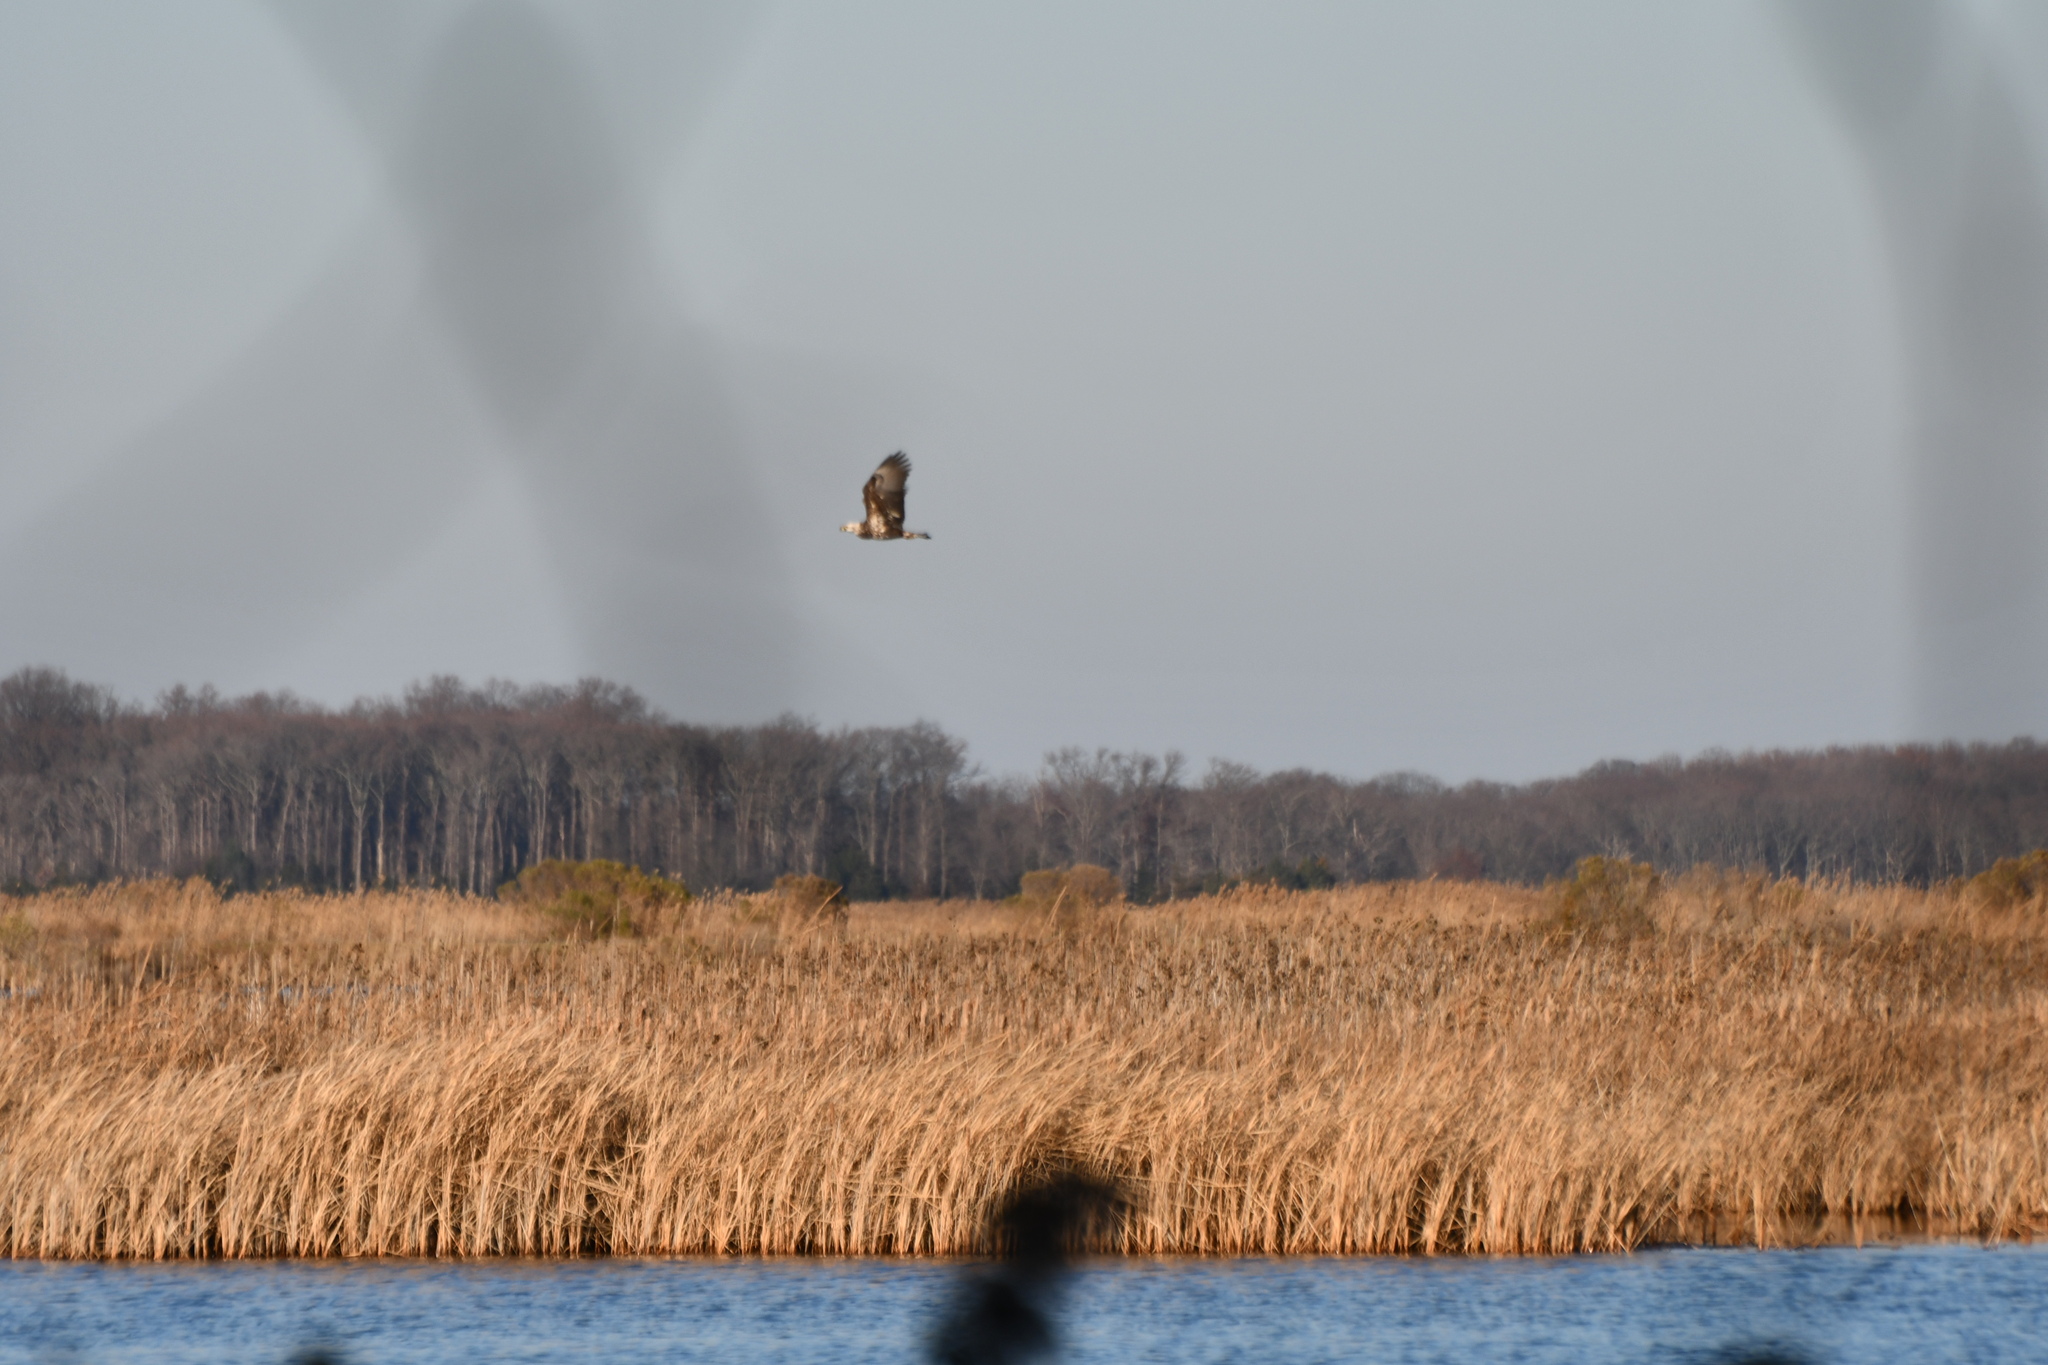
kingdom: Animalia
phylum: Chordata
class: Aves
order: Accipitriformes
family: Accipitridae
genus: Haliaeetus
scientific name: Haliaeetus leucocephalus
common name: Bald eagle
